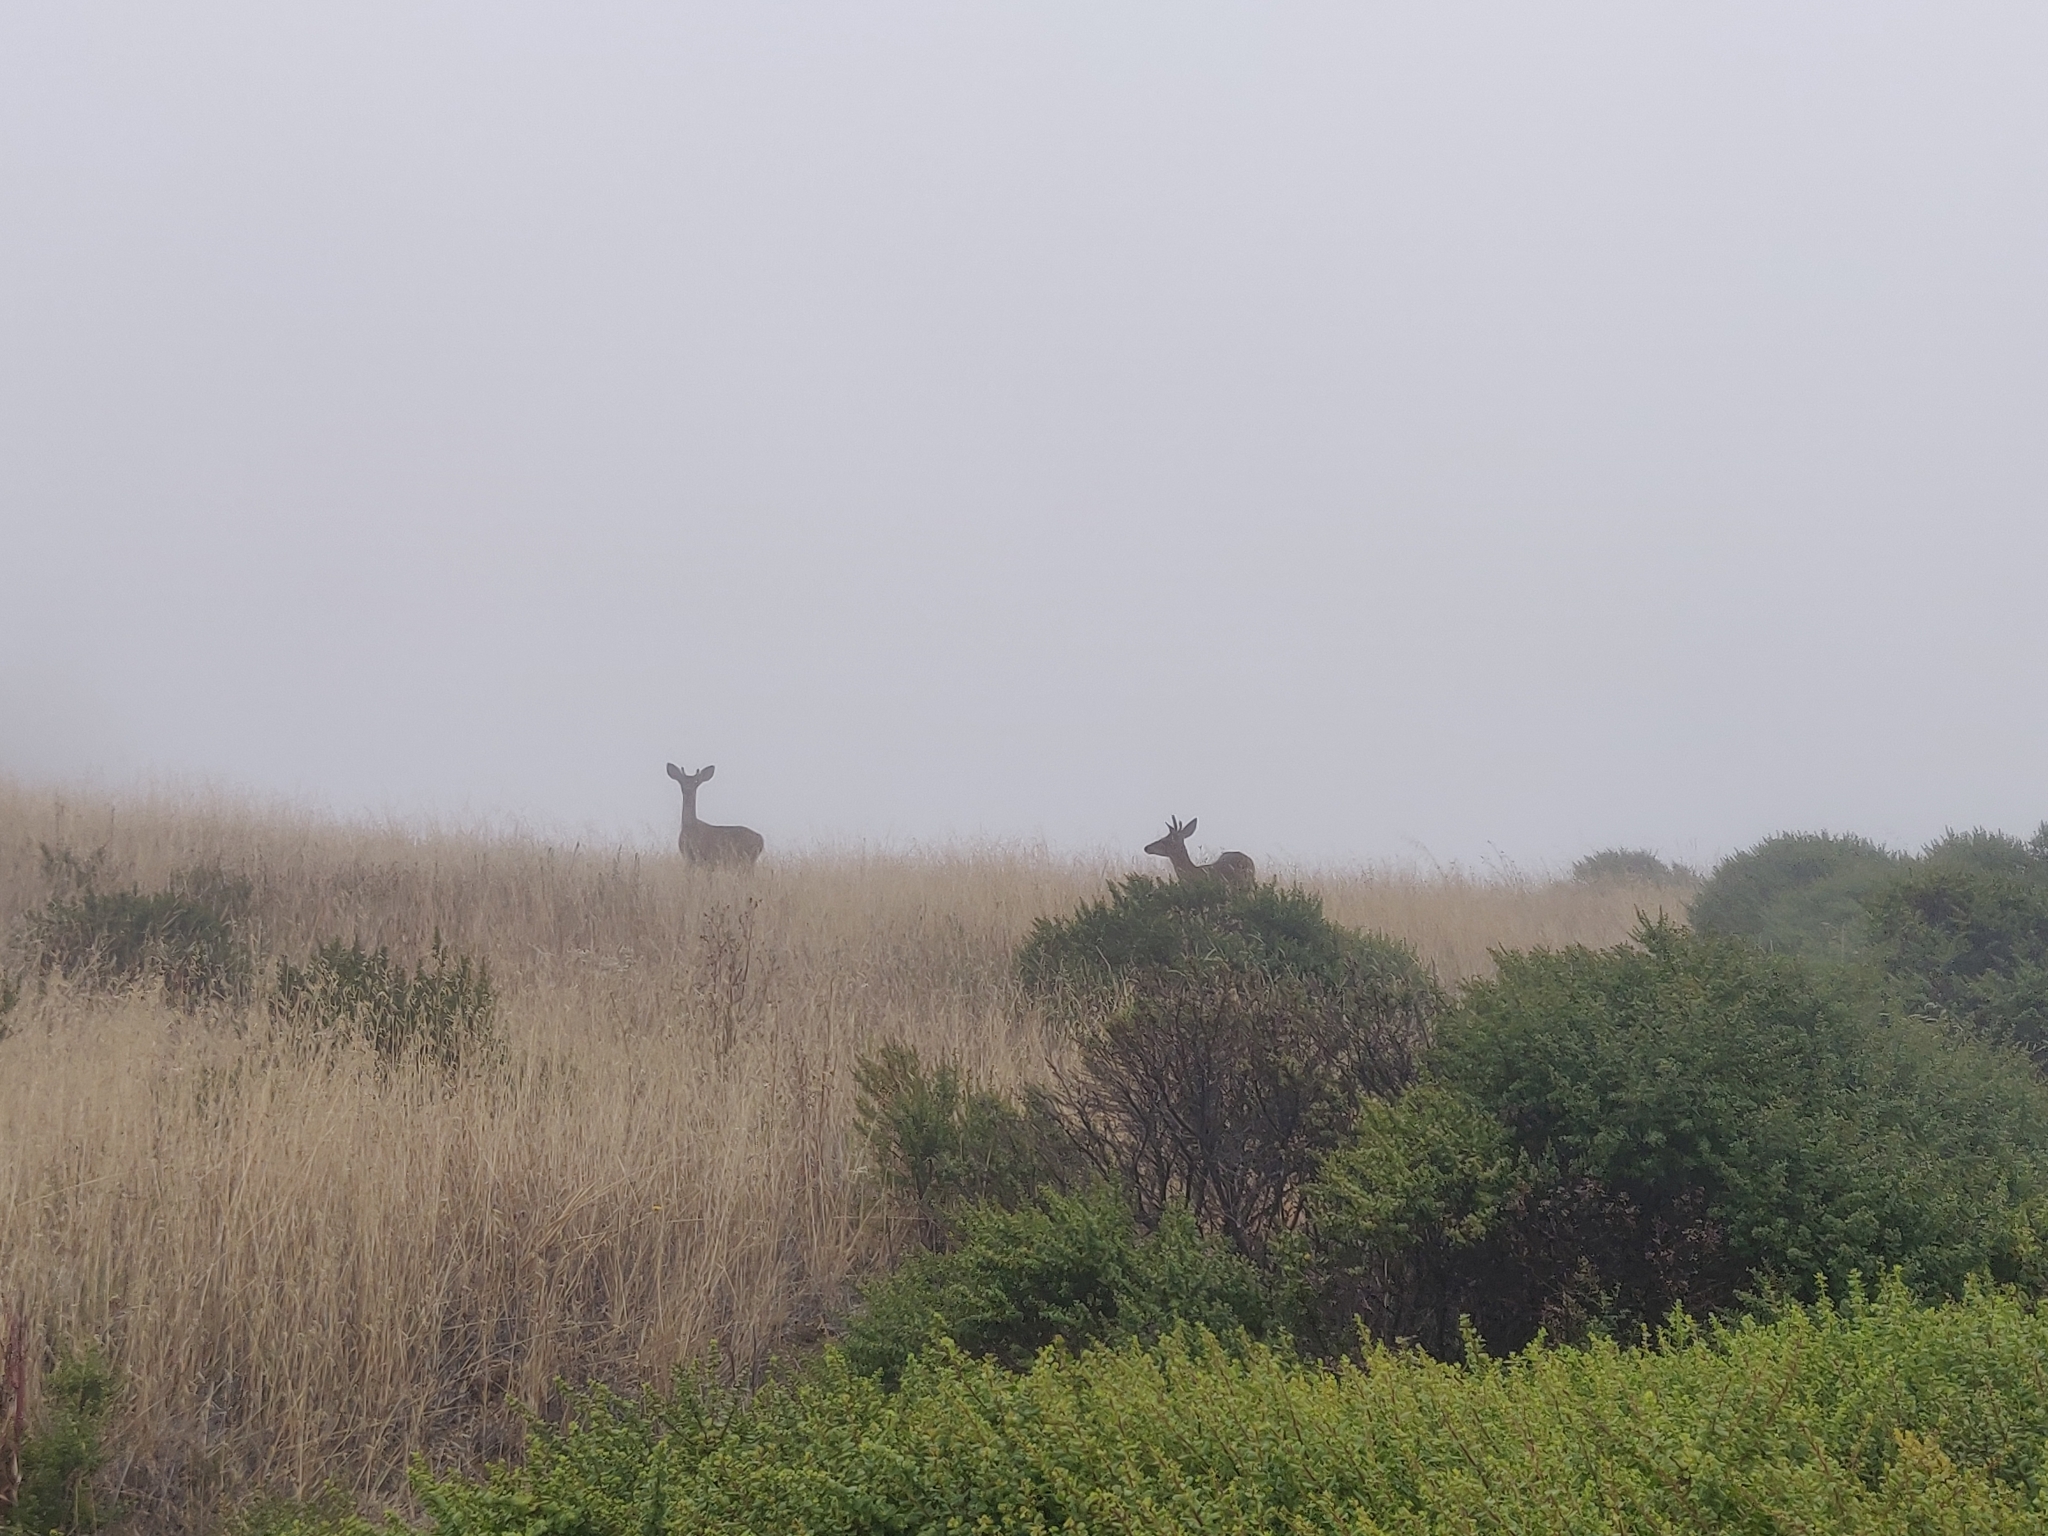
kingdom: Animalia
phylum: Chordata
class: Mammalia
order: Artiodactyla
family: Cervidae
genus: Odocoileus
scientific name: Odocoileus hemionus
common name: Mule deer
